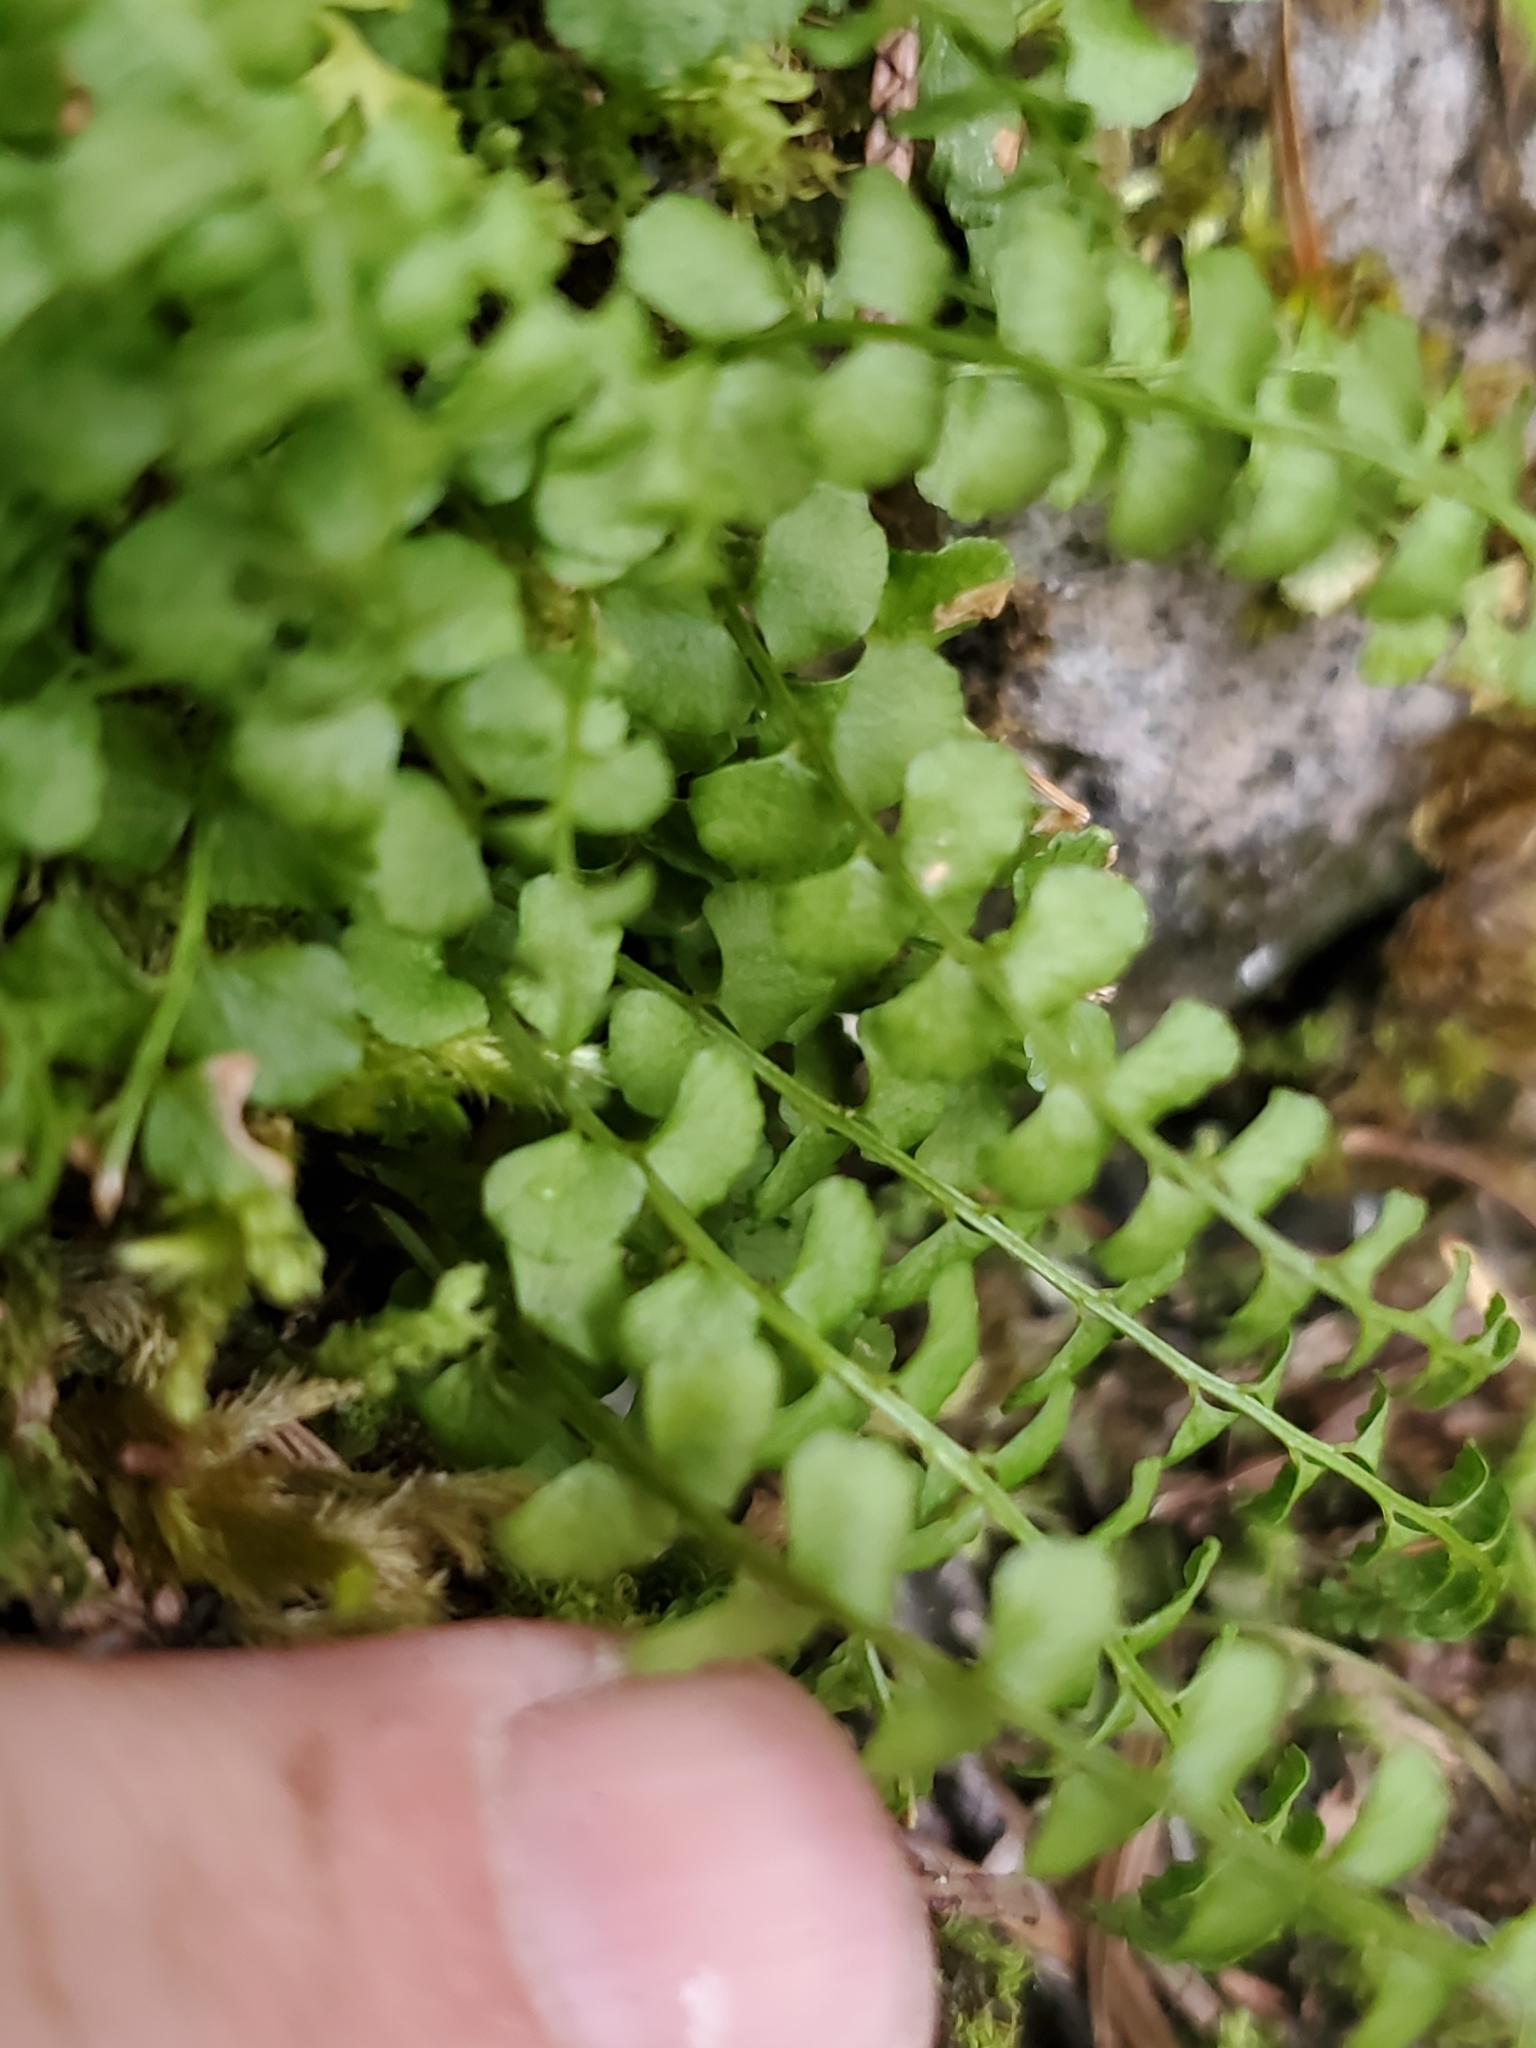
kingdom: Plantae
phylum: Tracheophyta
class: Polypodiopsida
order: Polypodiales
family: Aspleniaceae
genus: Asplenium
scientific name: Asplenium viride
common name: Green spleenwort
